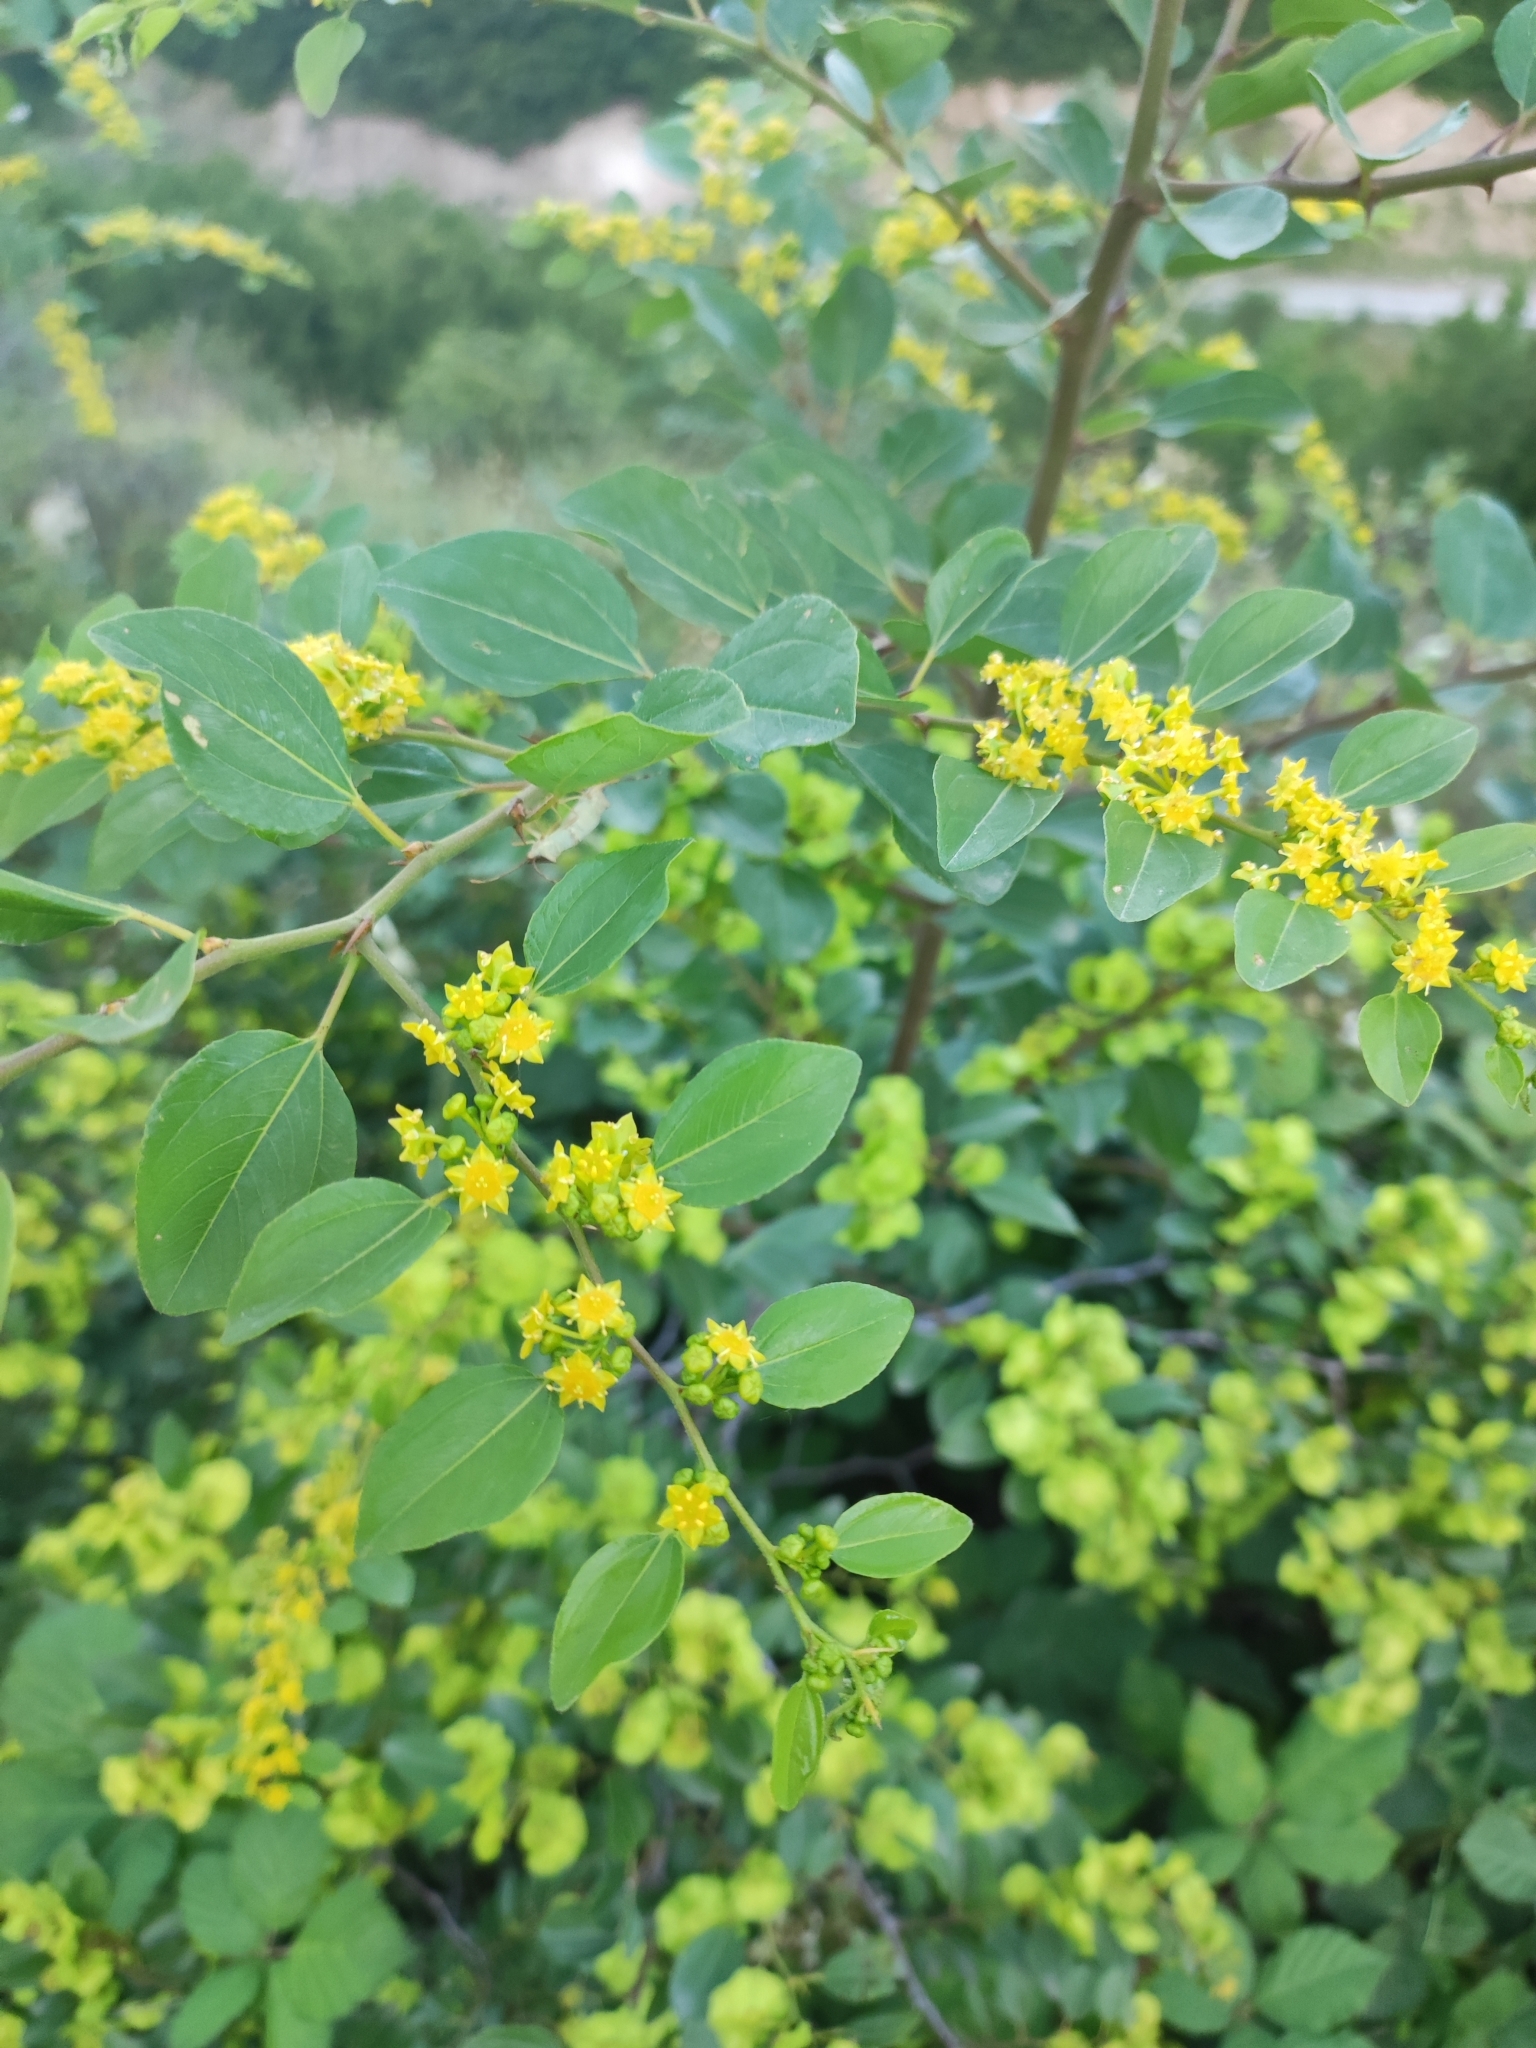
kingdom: Plantae
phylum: Tracheophyta
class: Magnoliopsida
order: Rosales
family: Rhamnaceae
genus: Paliurus
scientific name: Paliurus spina-christi
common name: Jeruselem thorn
